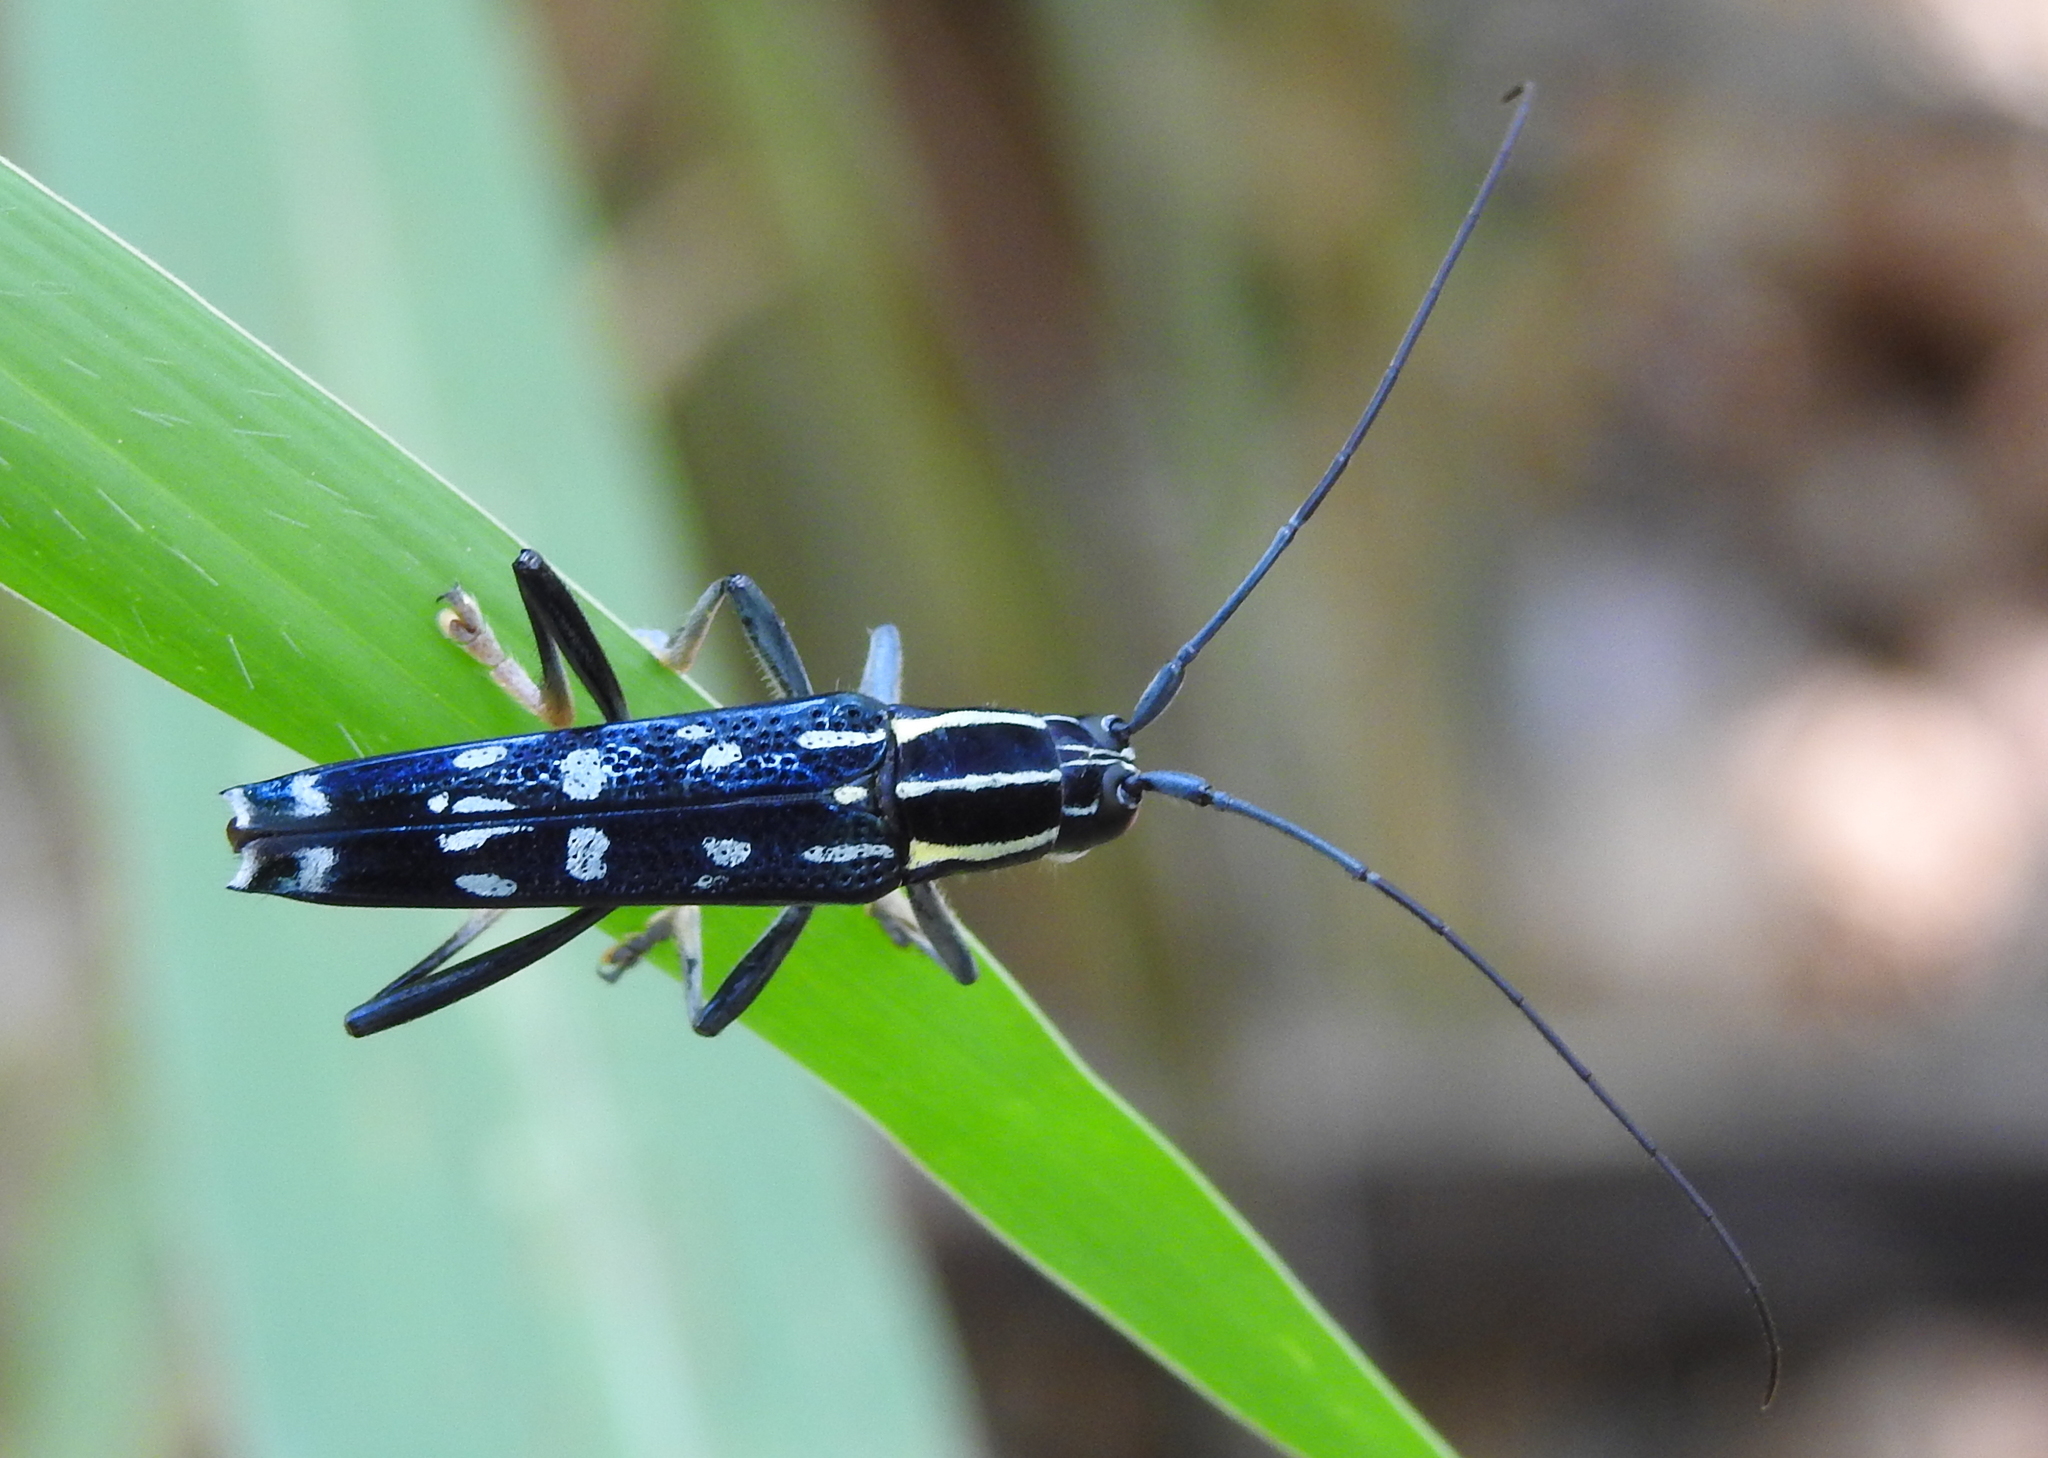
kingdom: Animalia
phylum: Arthropoda
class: Insecta
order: Coleoptera
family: Cerambycidae
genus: Glenea
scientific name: Glenea elegans
